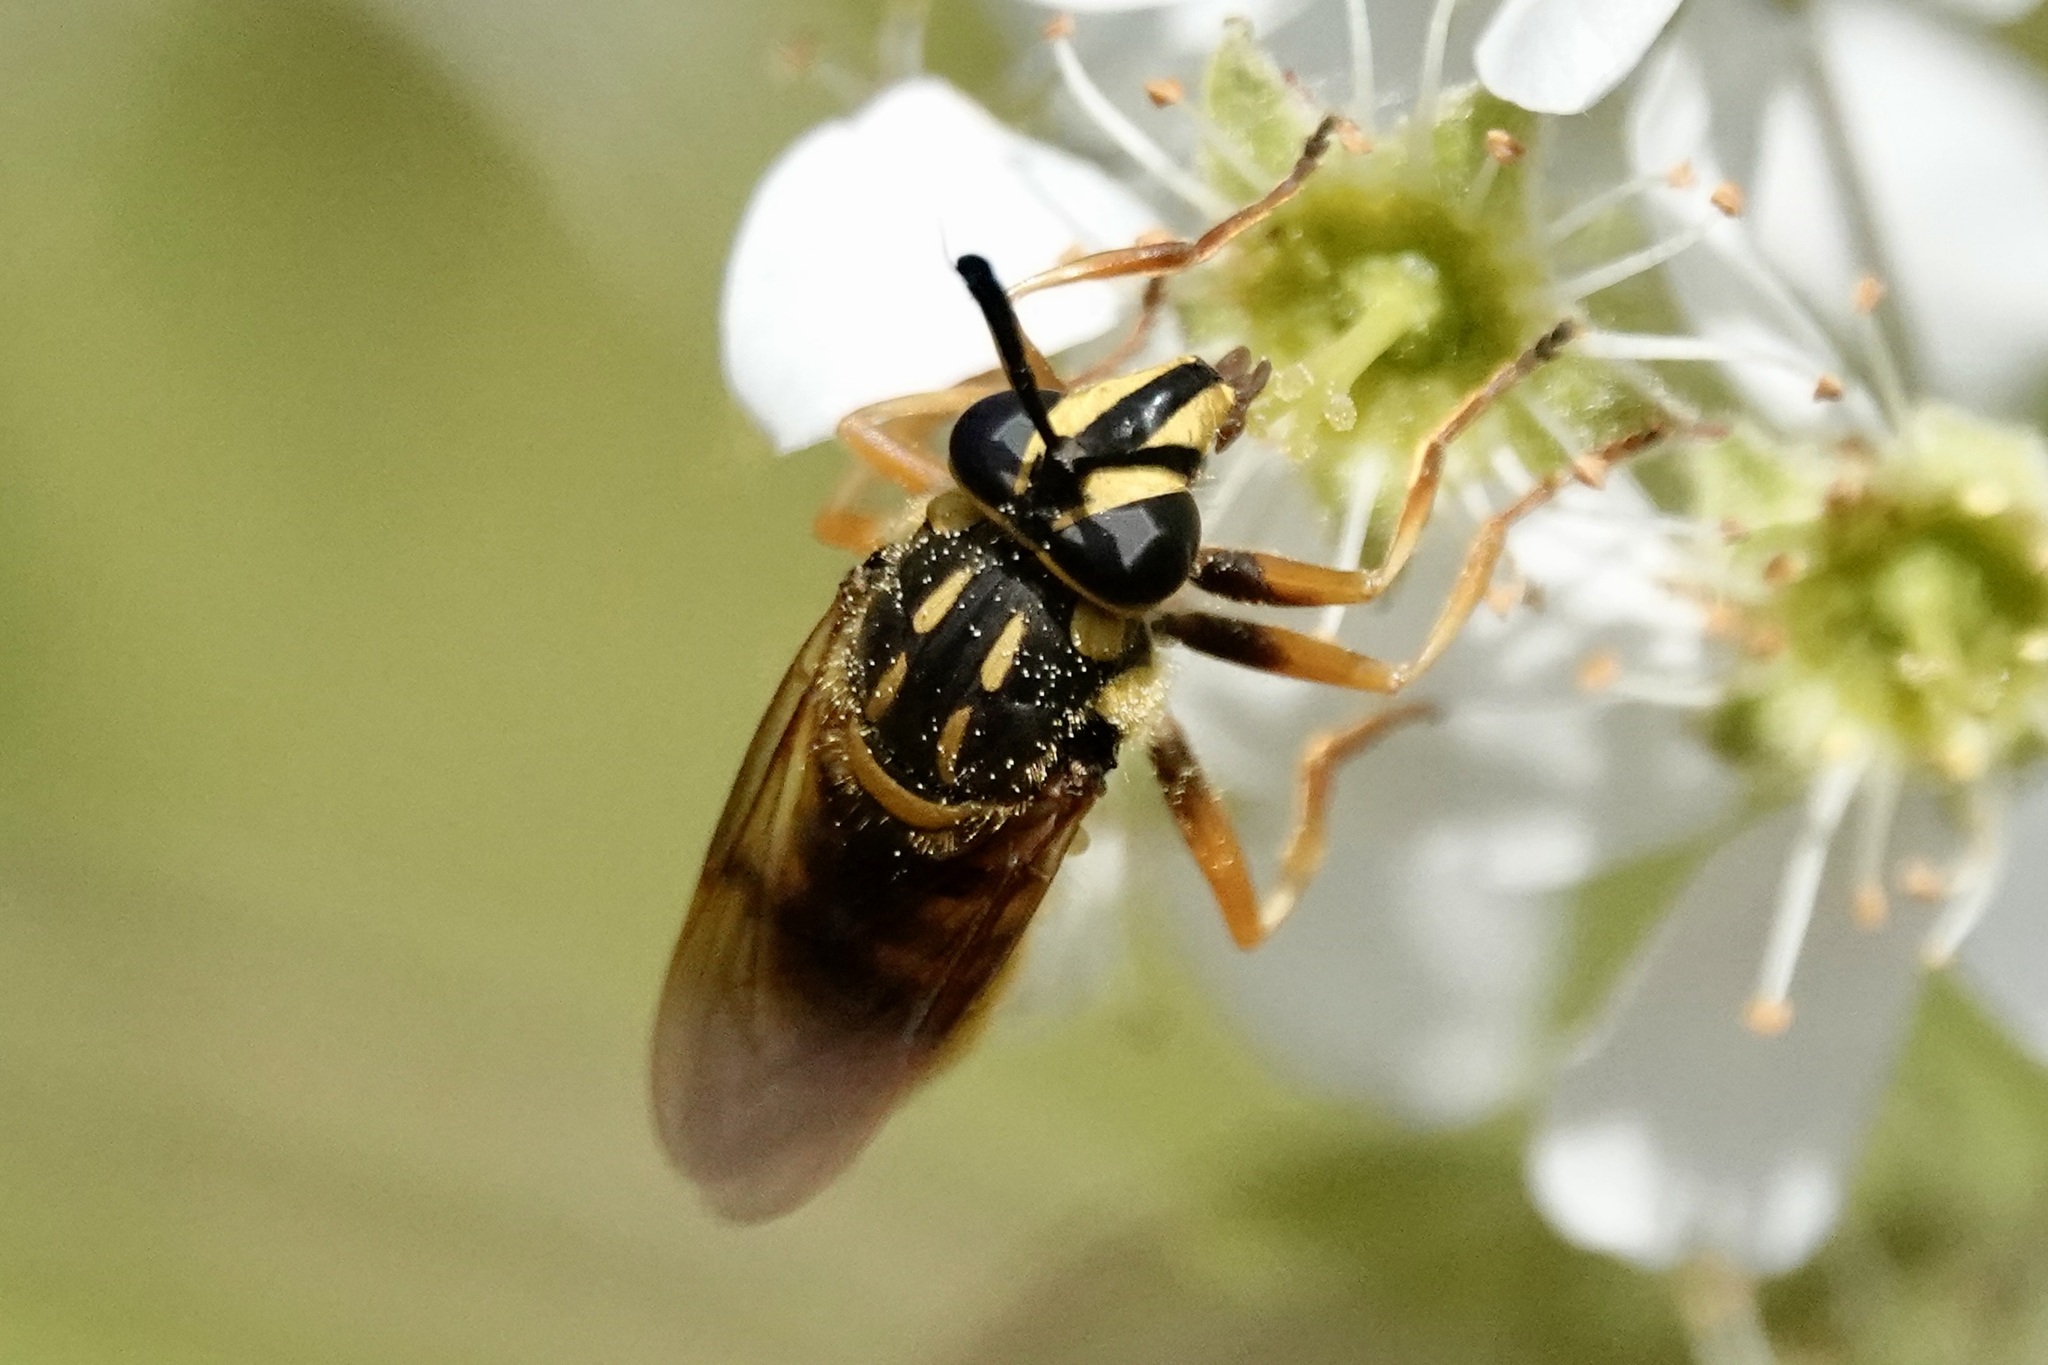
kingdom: Animalia
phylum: Arthropoda
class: Insecta
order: Diptera
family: Syrphidae
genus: Sphecomyia
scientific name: Sphecomyia vittata
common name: Long-horned yellowjacket fly
